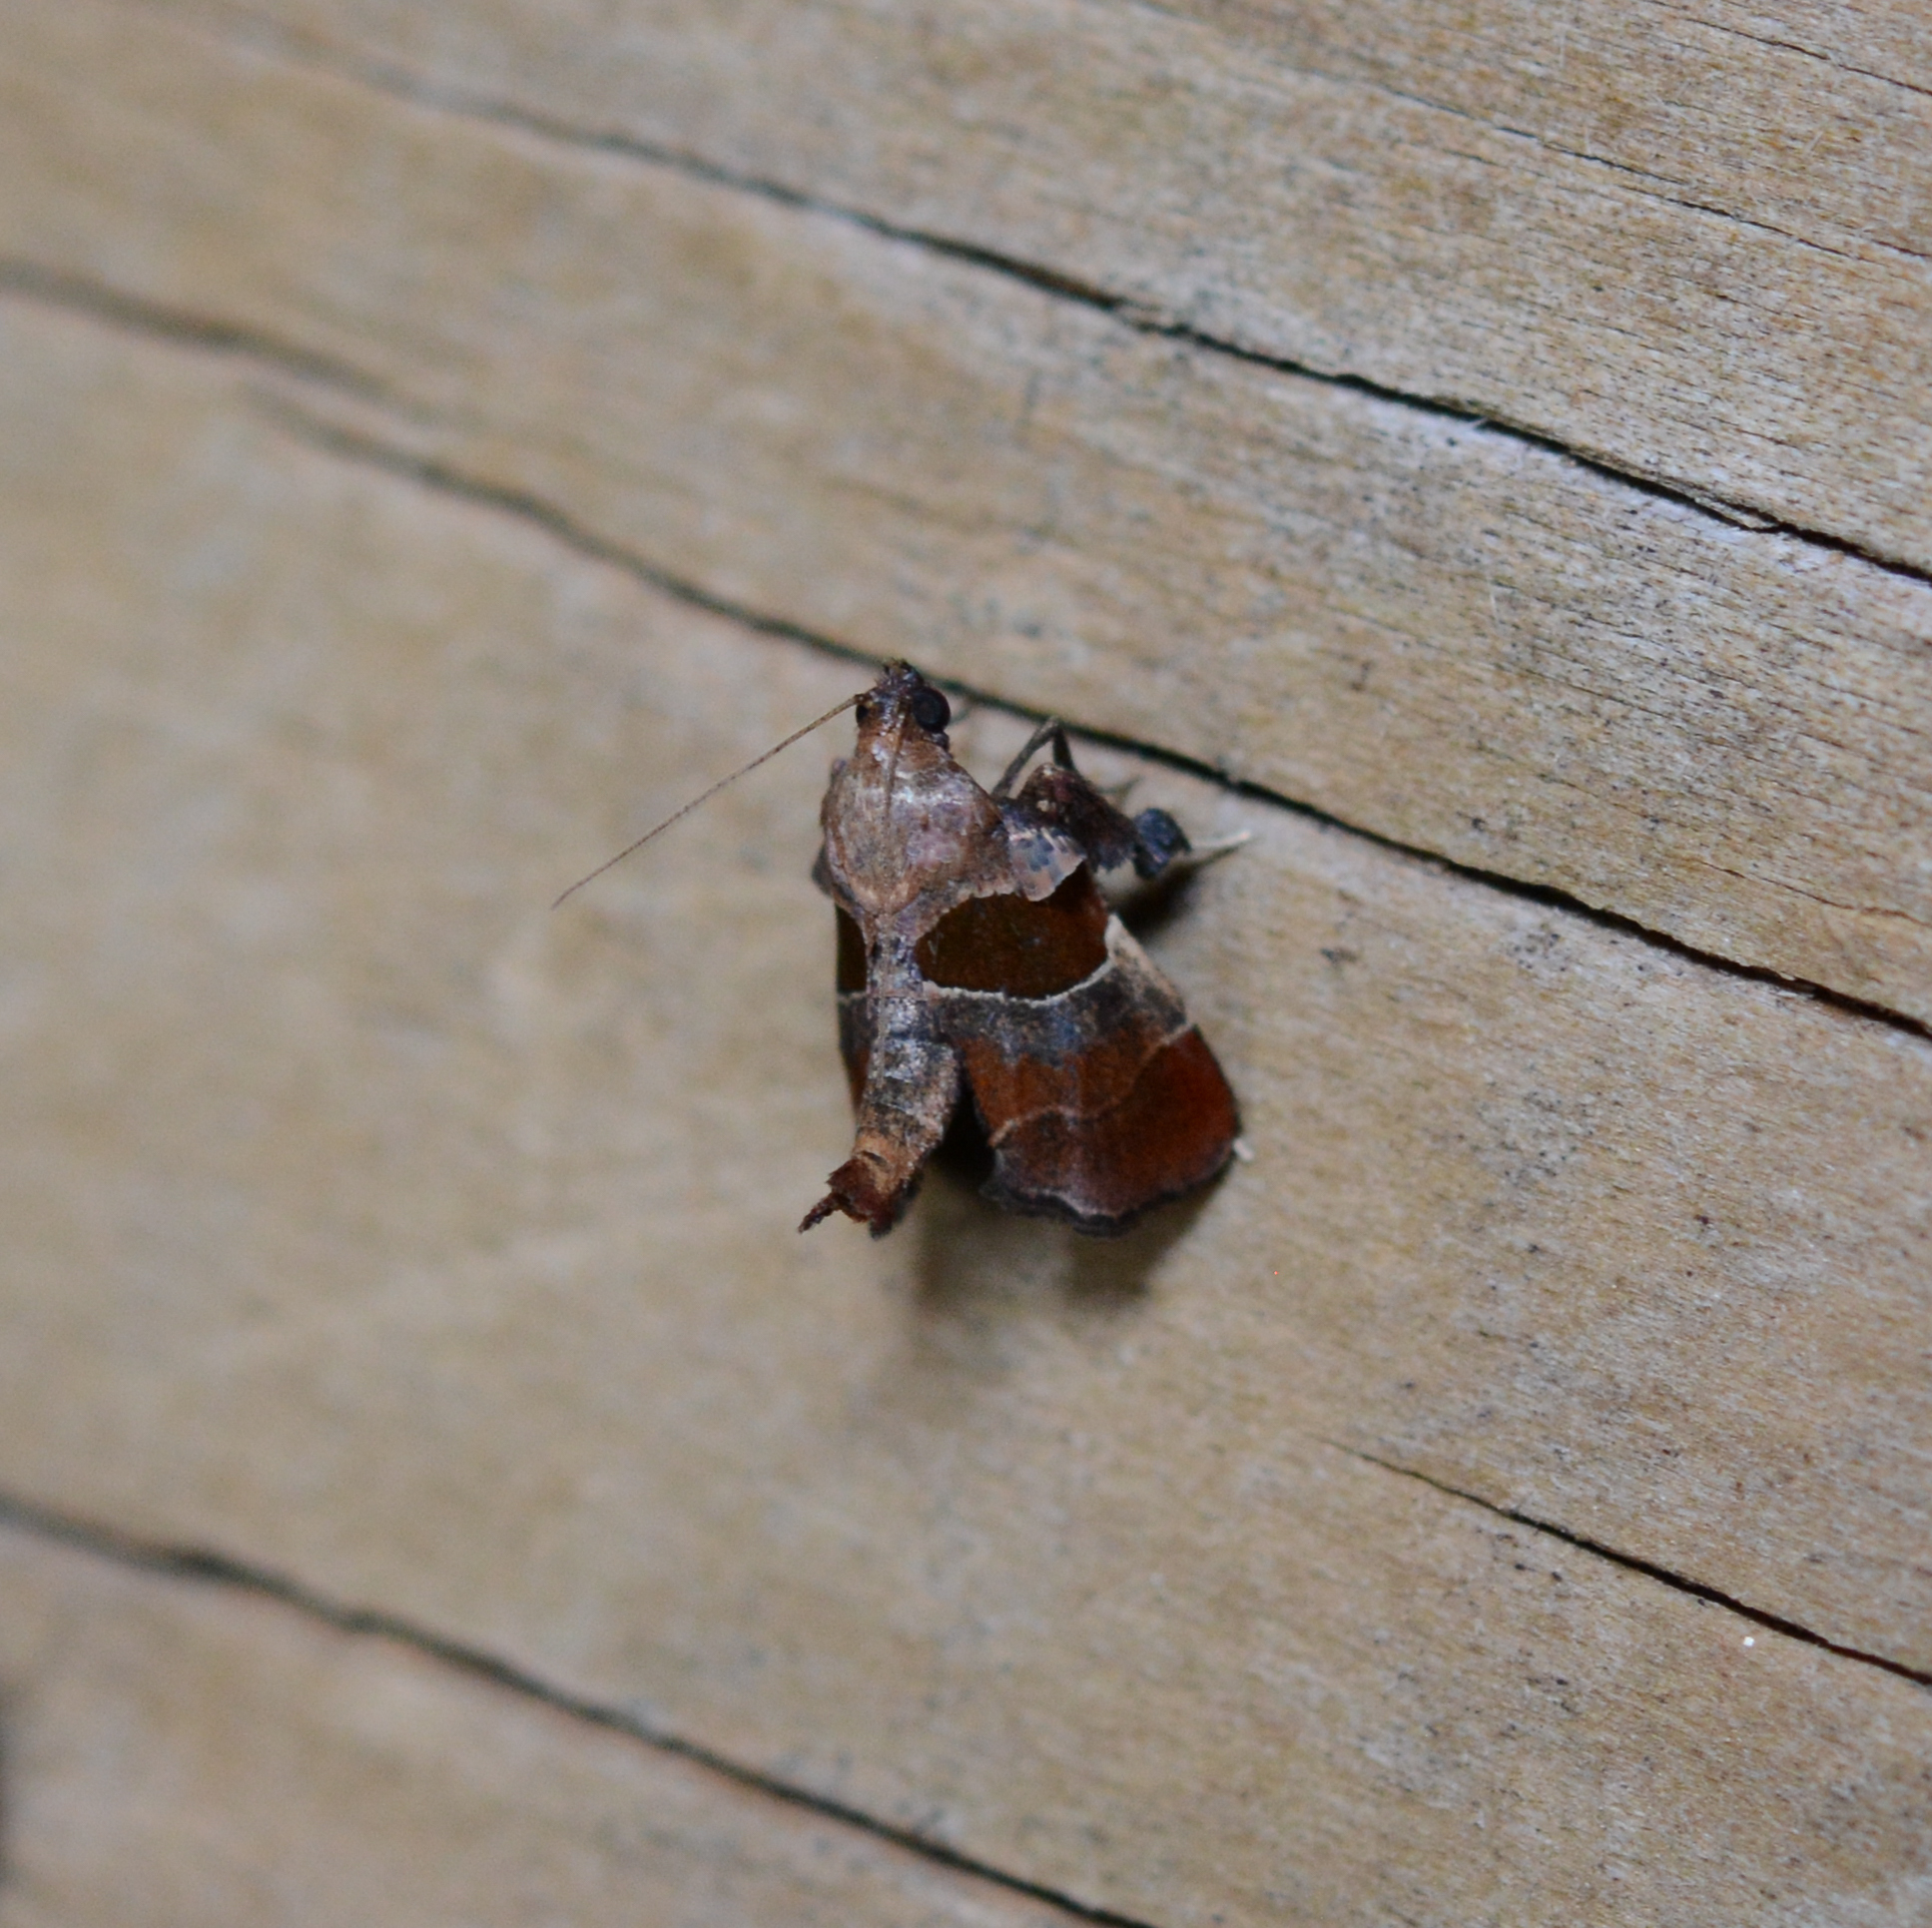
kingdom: Animalia
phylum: Arthropoda
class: Insecta
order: Lepidoptera
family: Pyralidae
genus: Tosale
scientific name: Tosale oviplagalis
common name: Dimorphic tosale moth
